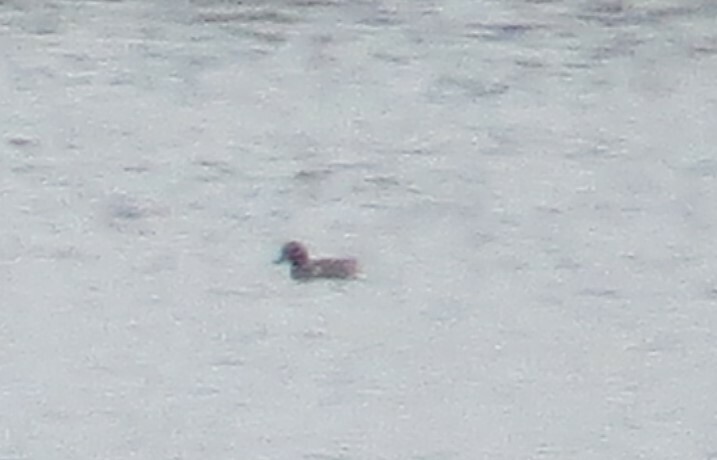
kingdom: Animalia
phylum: Chordata
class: Aves
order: Anseriformes
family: Anatidae
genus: Anas
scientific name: Anas crecca
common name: Eurasian teal
